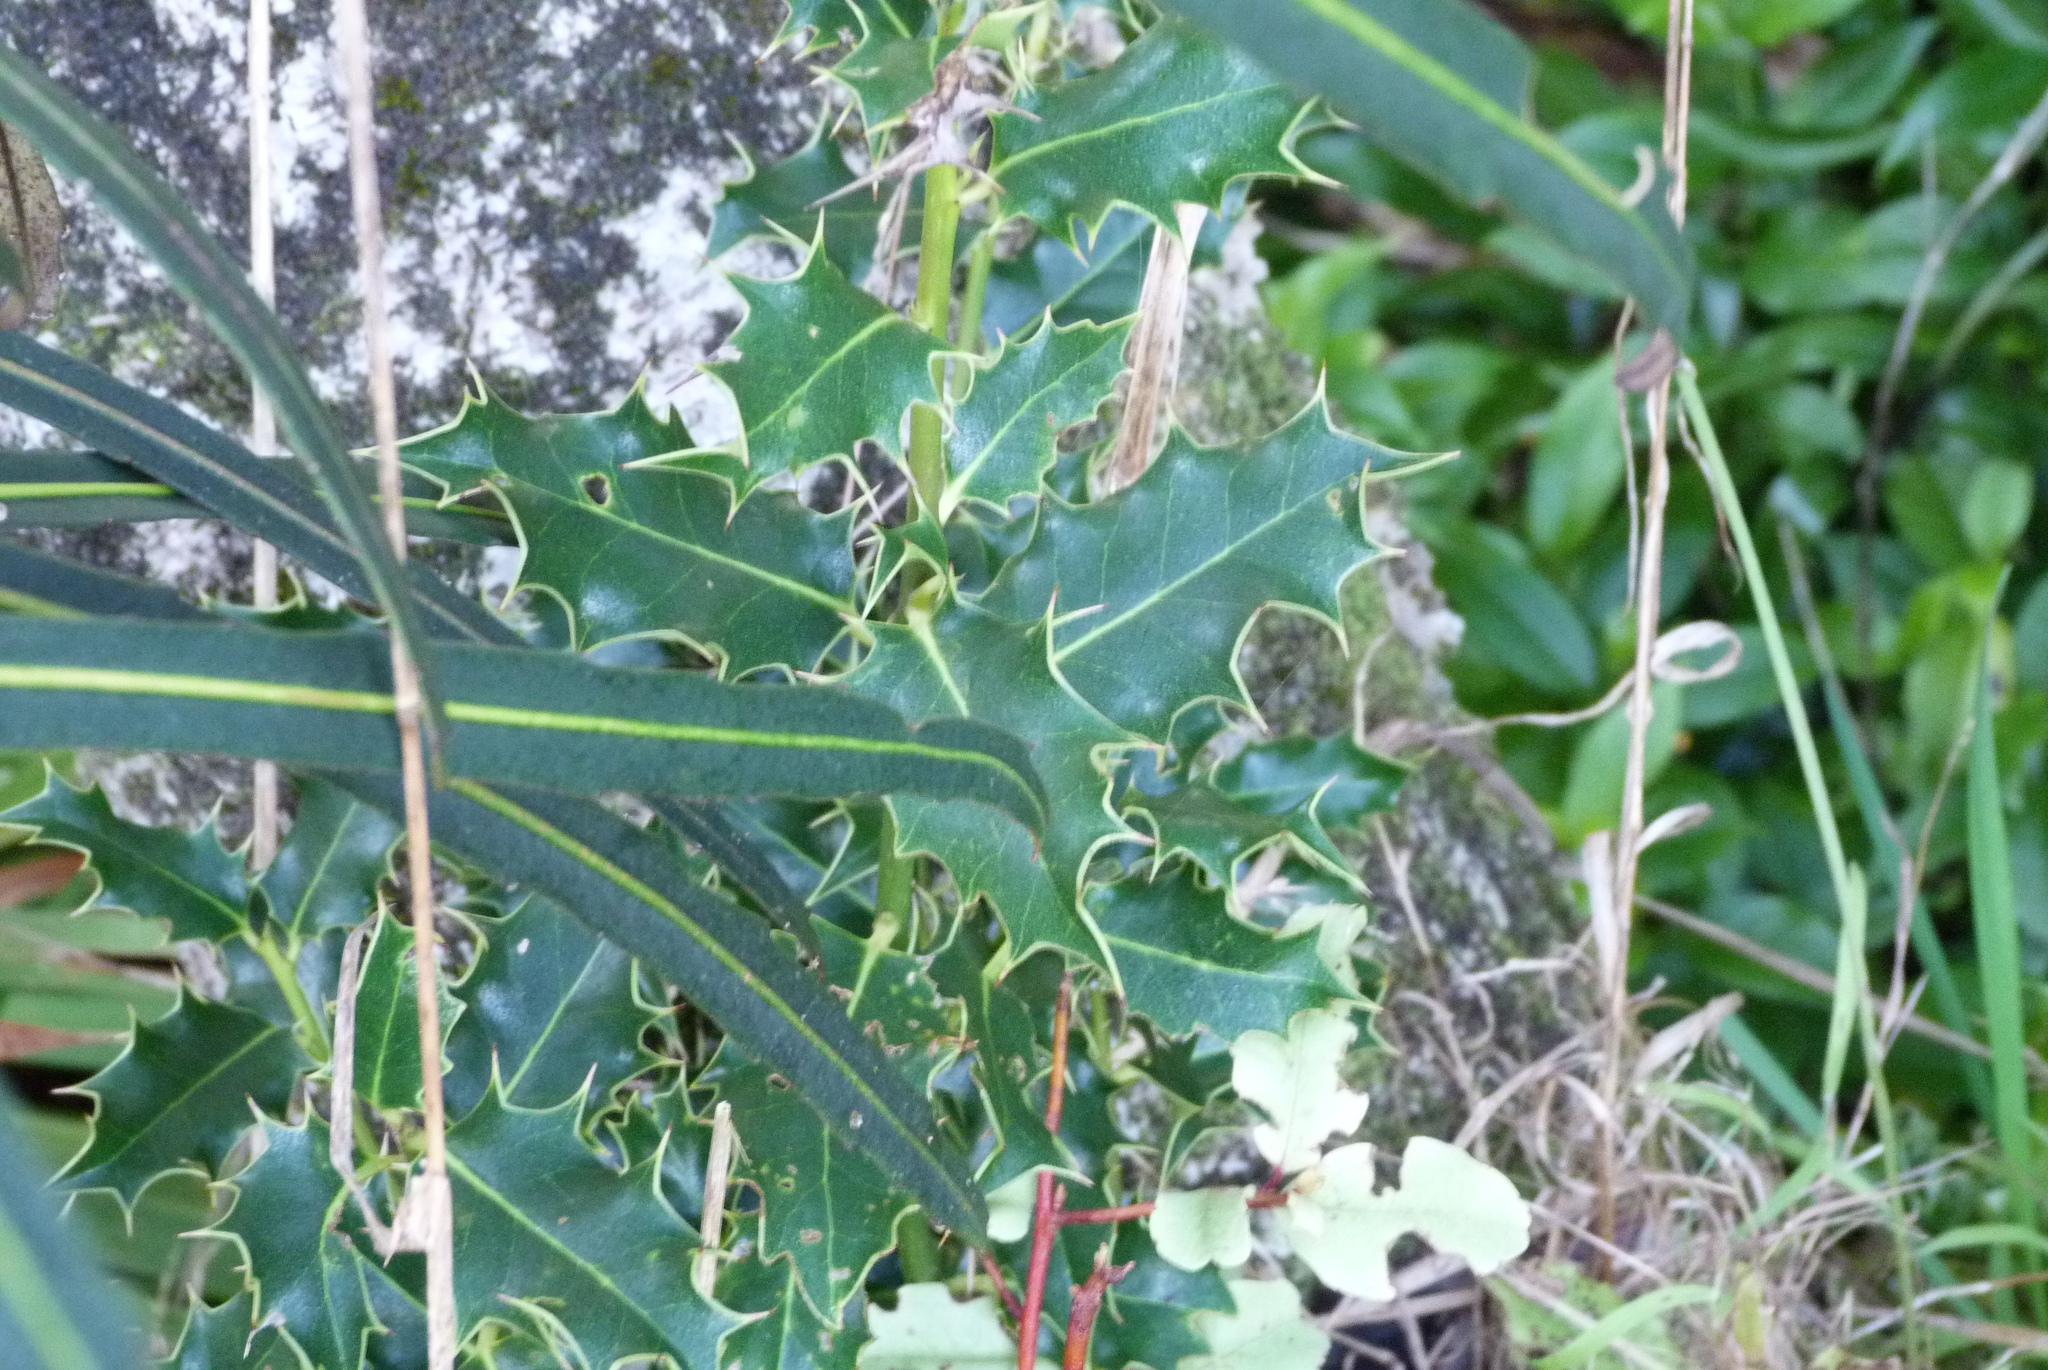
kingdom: Plantae
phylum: Tracheophyta
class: Magnoliopsida
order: Aquifoliales
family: Aquifoliaceae
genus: Ilex
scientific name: Ilex aquifolium
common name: English holly
